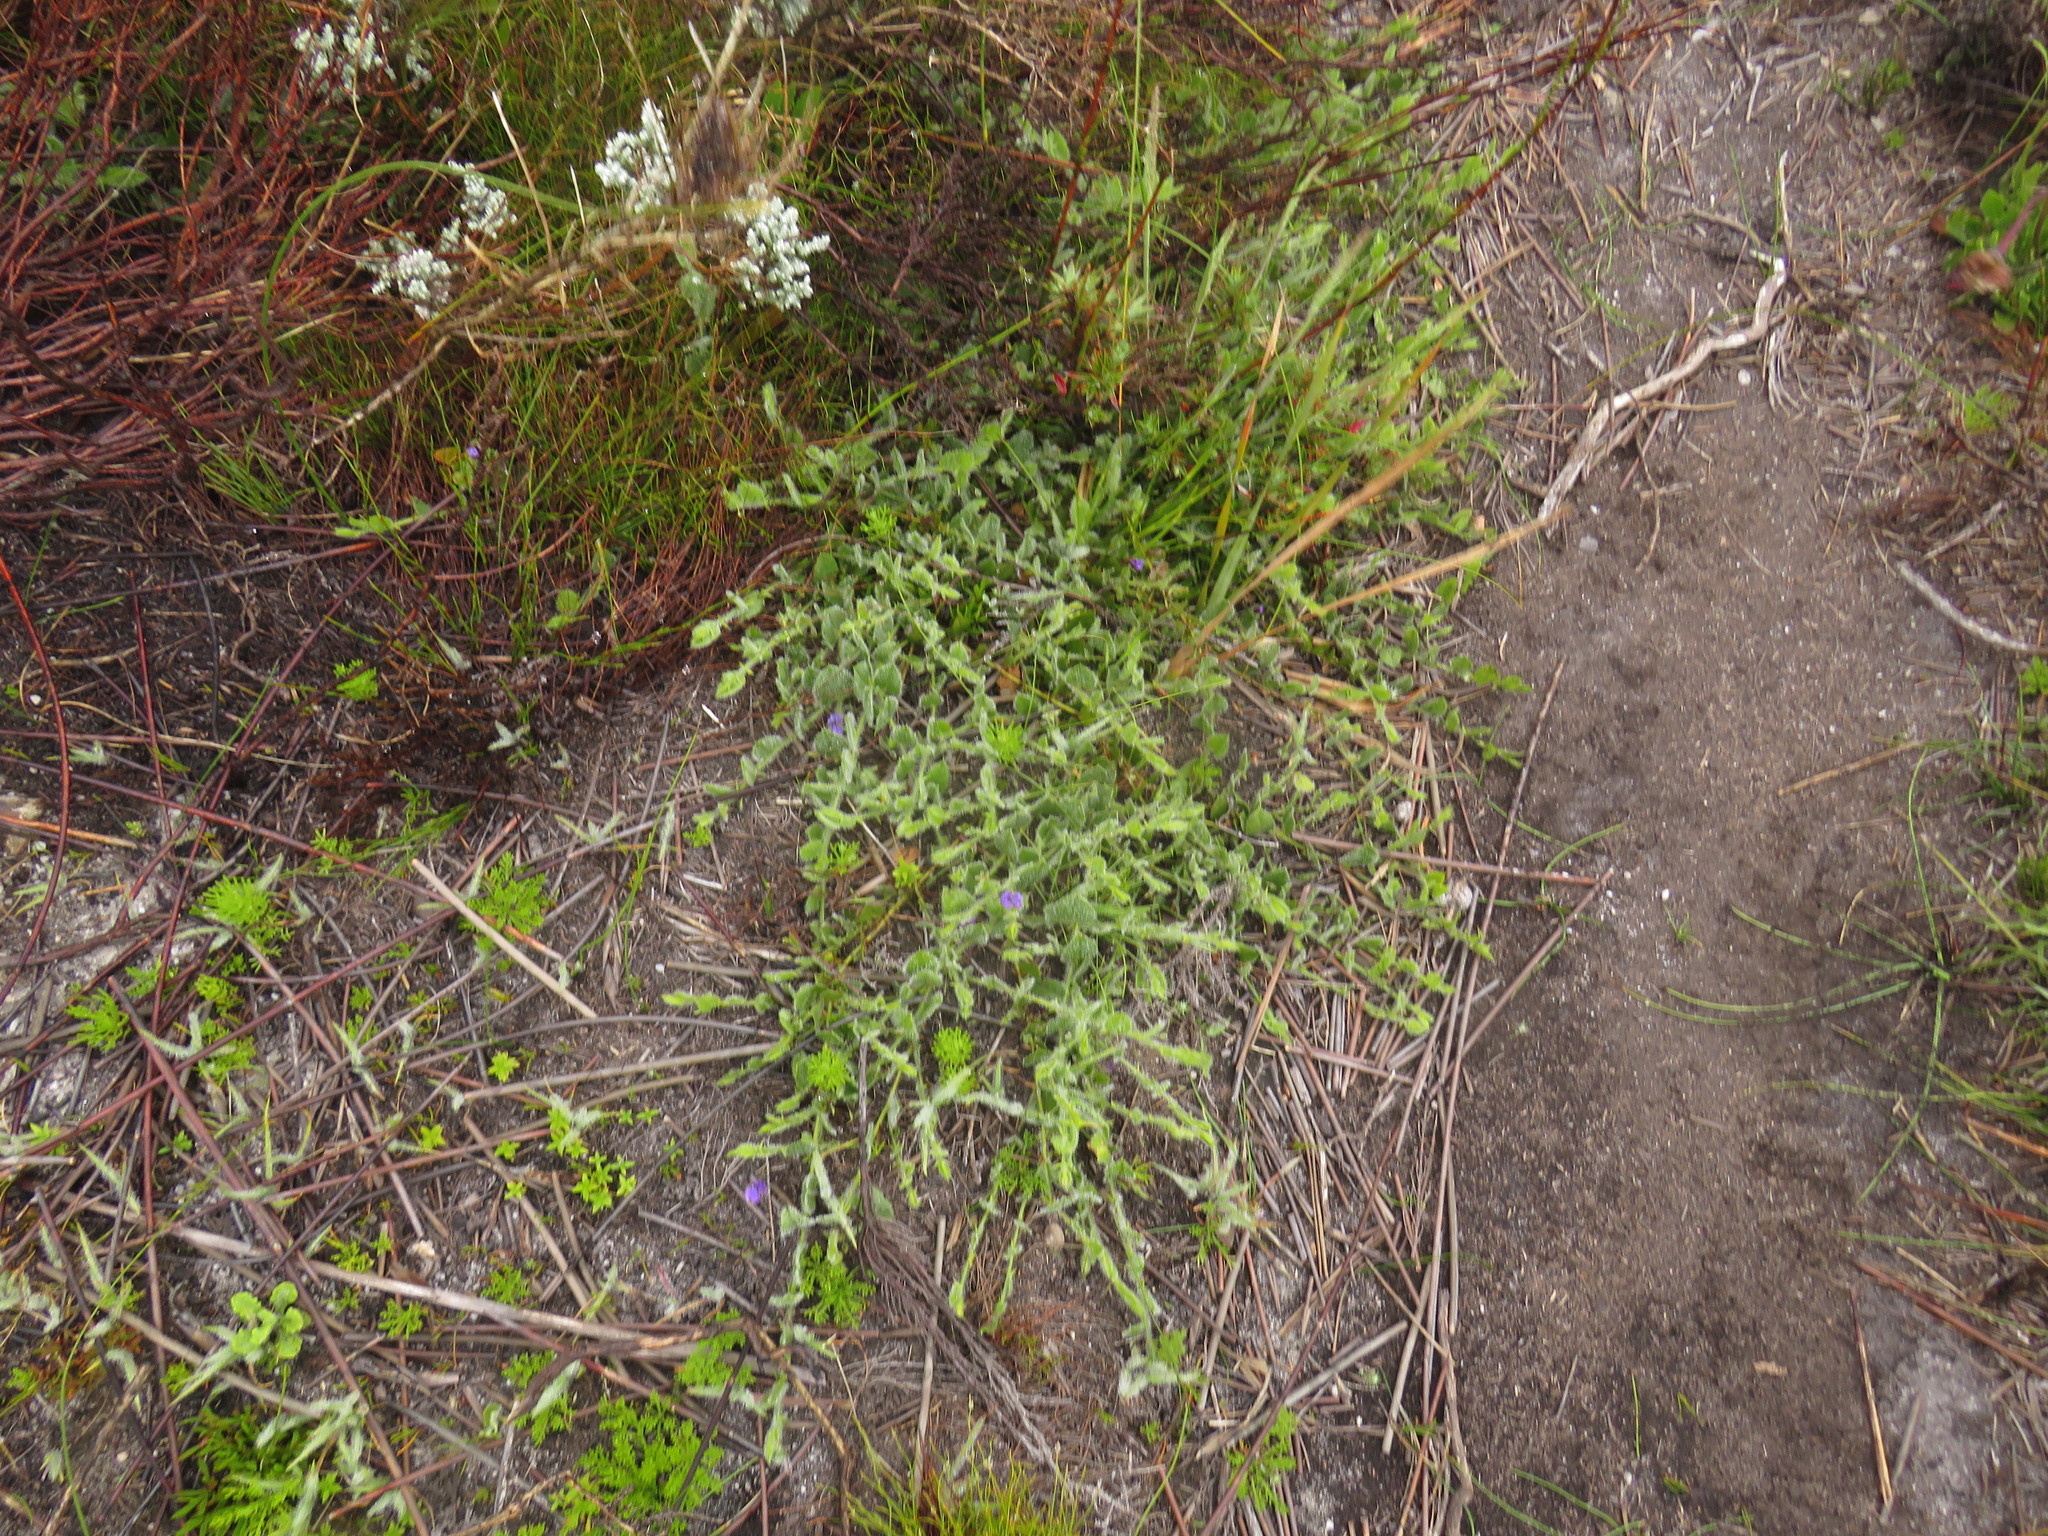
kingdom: Plantae
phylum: Tracheophyta
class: Magnoliopsida
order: Fabales
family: Fabaceae
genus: Psoralea
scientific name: Psoralea asarina
